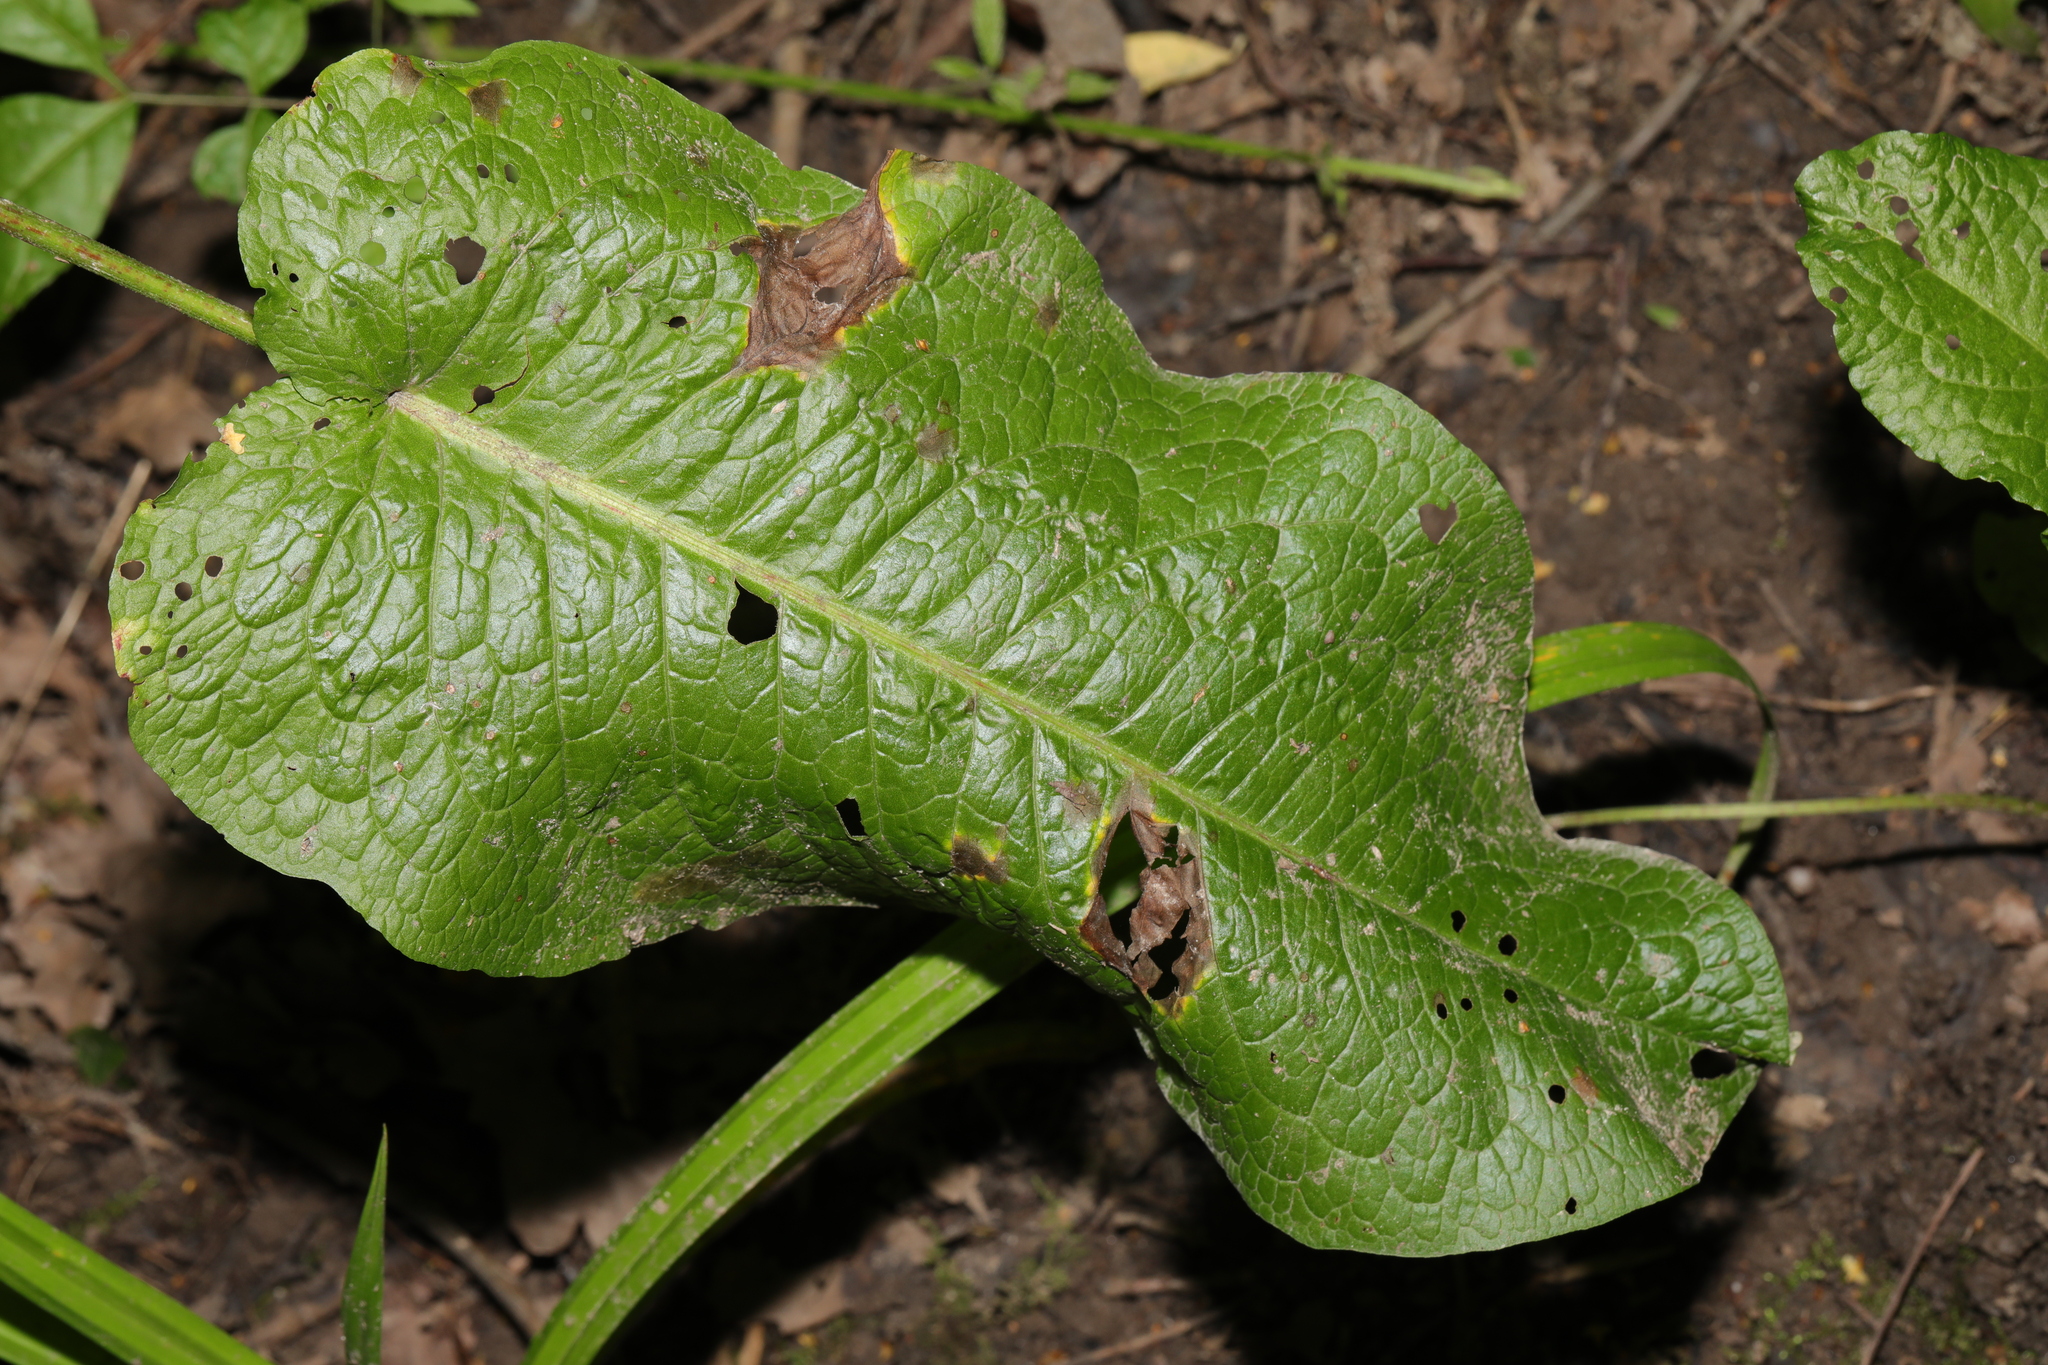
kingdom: Plantae
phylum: Tracheophyta
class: Magnoliopsida
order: Caryophyllales
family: Polygonaceae
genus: Rumex
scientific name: Rumex obtusifolius
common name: Bitter dock
